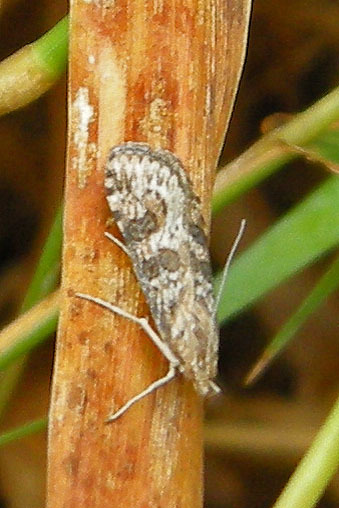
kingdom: Animalia
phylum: Arthropoda
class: Insecta
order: Lepidoptera
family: Crambidae
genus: Nomophila
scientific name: Nomophila nearctica
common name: American rush veneer
